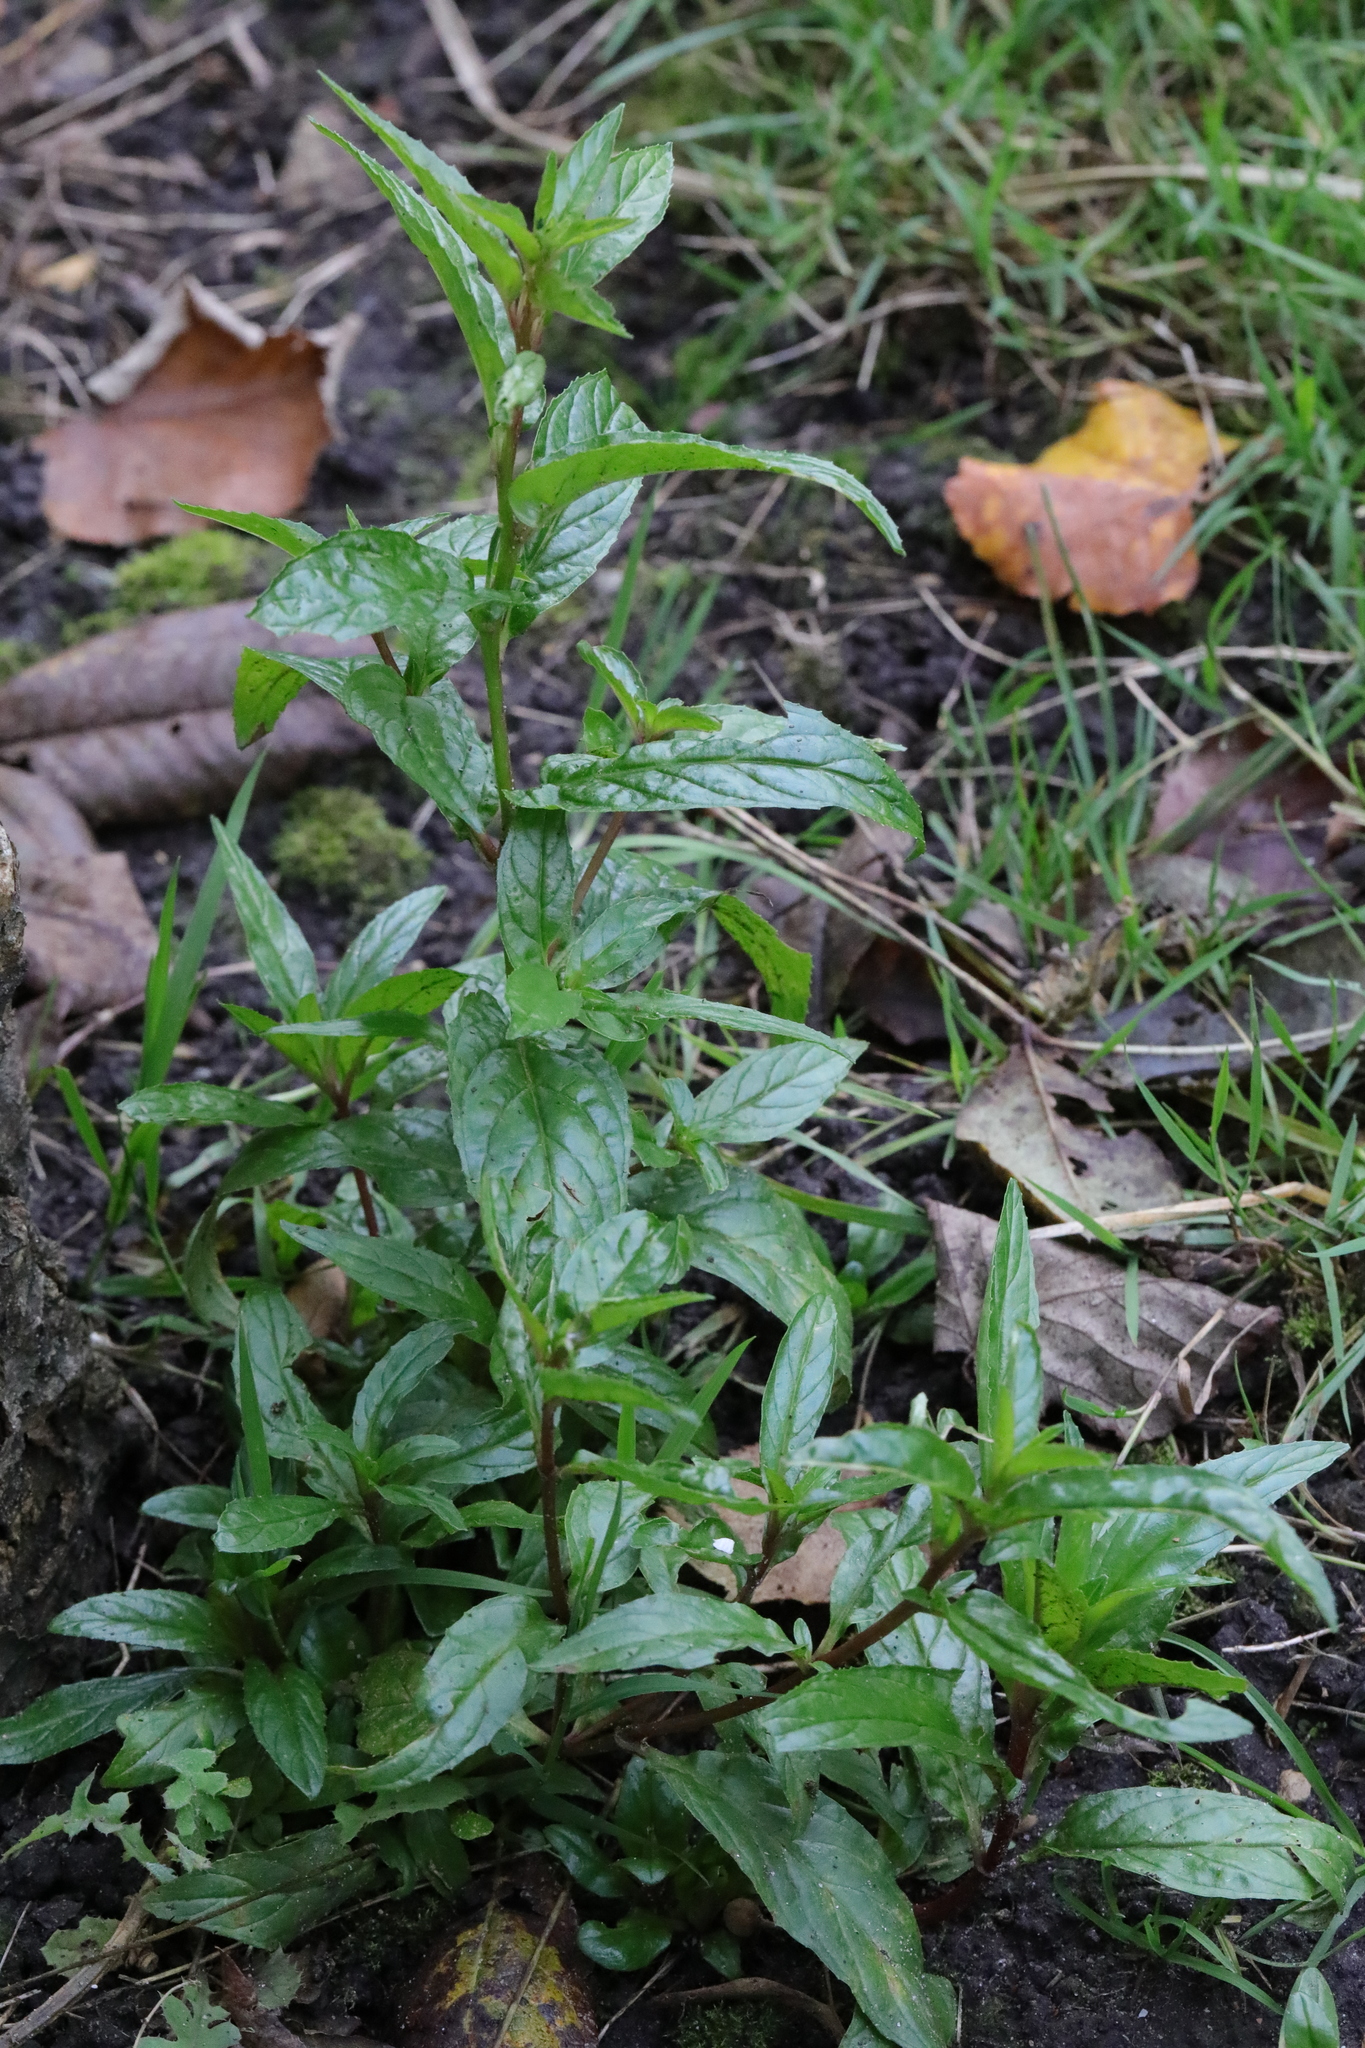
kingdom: Plantae
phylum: Tracheophyta
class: Magnoliopsida
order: Myrtales
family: Onagraceae
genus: Epilobium
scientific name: Epilobium montanum
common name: Broad-leaved willowherb
